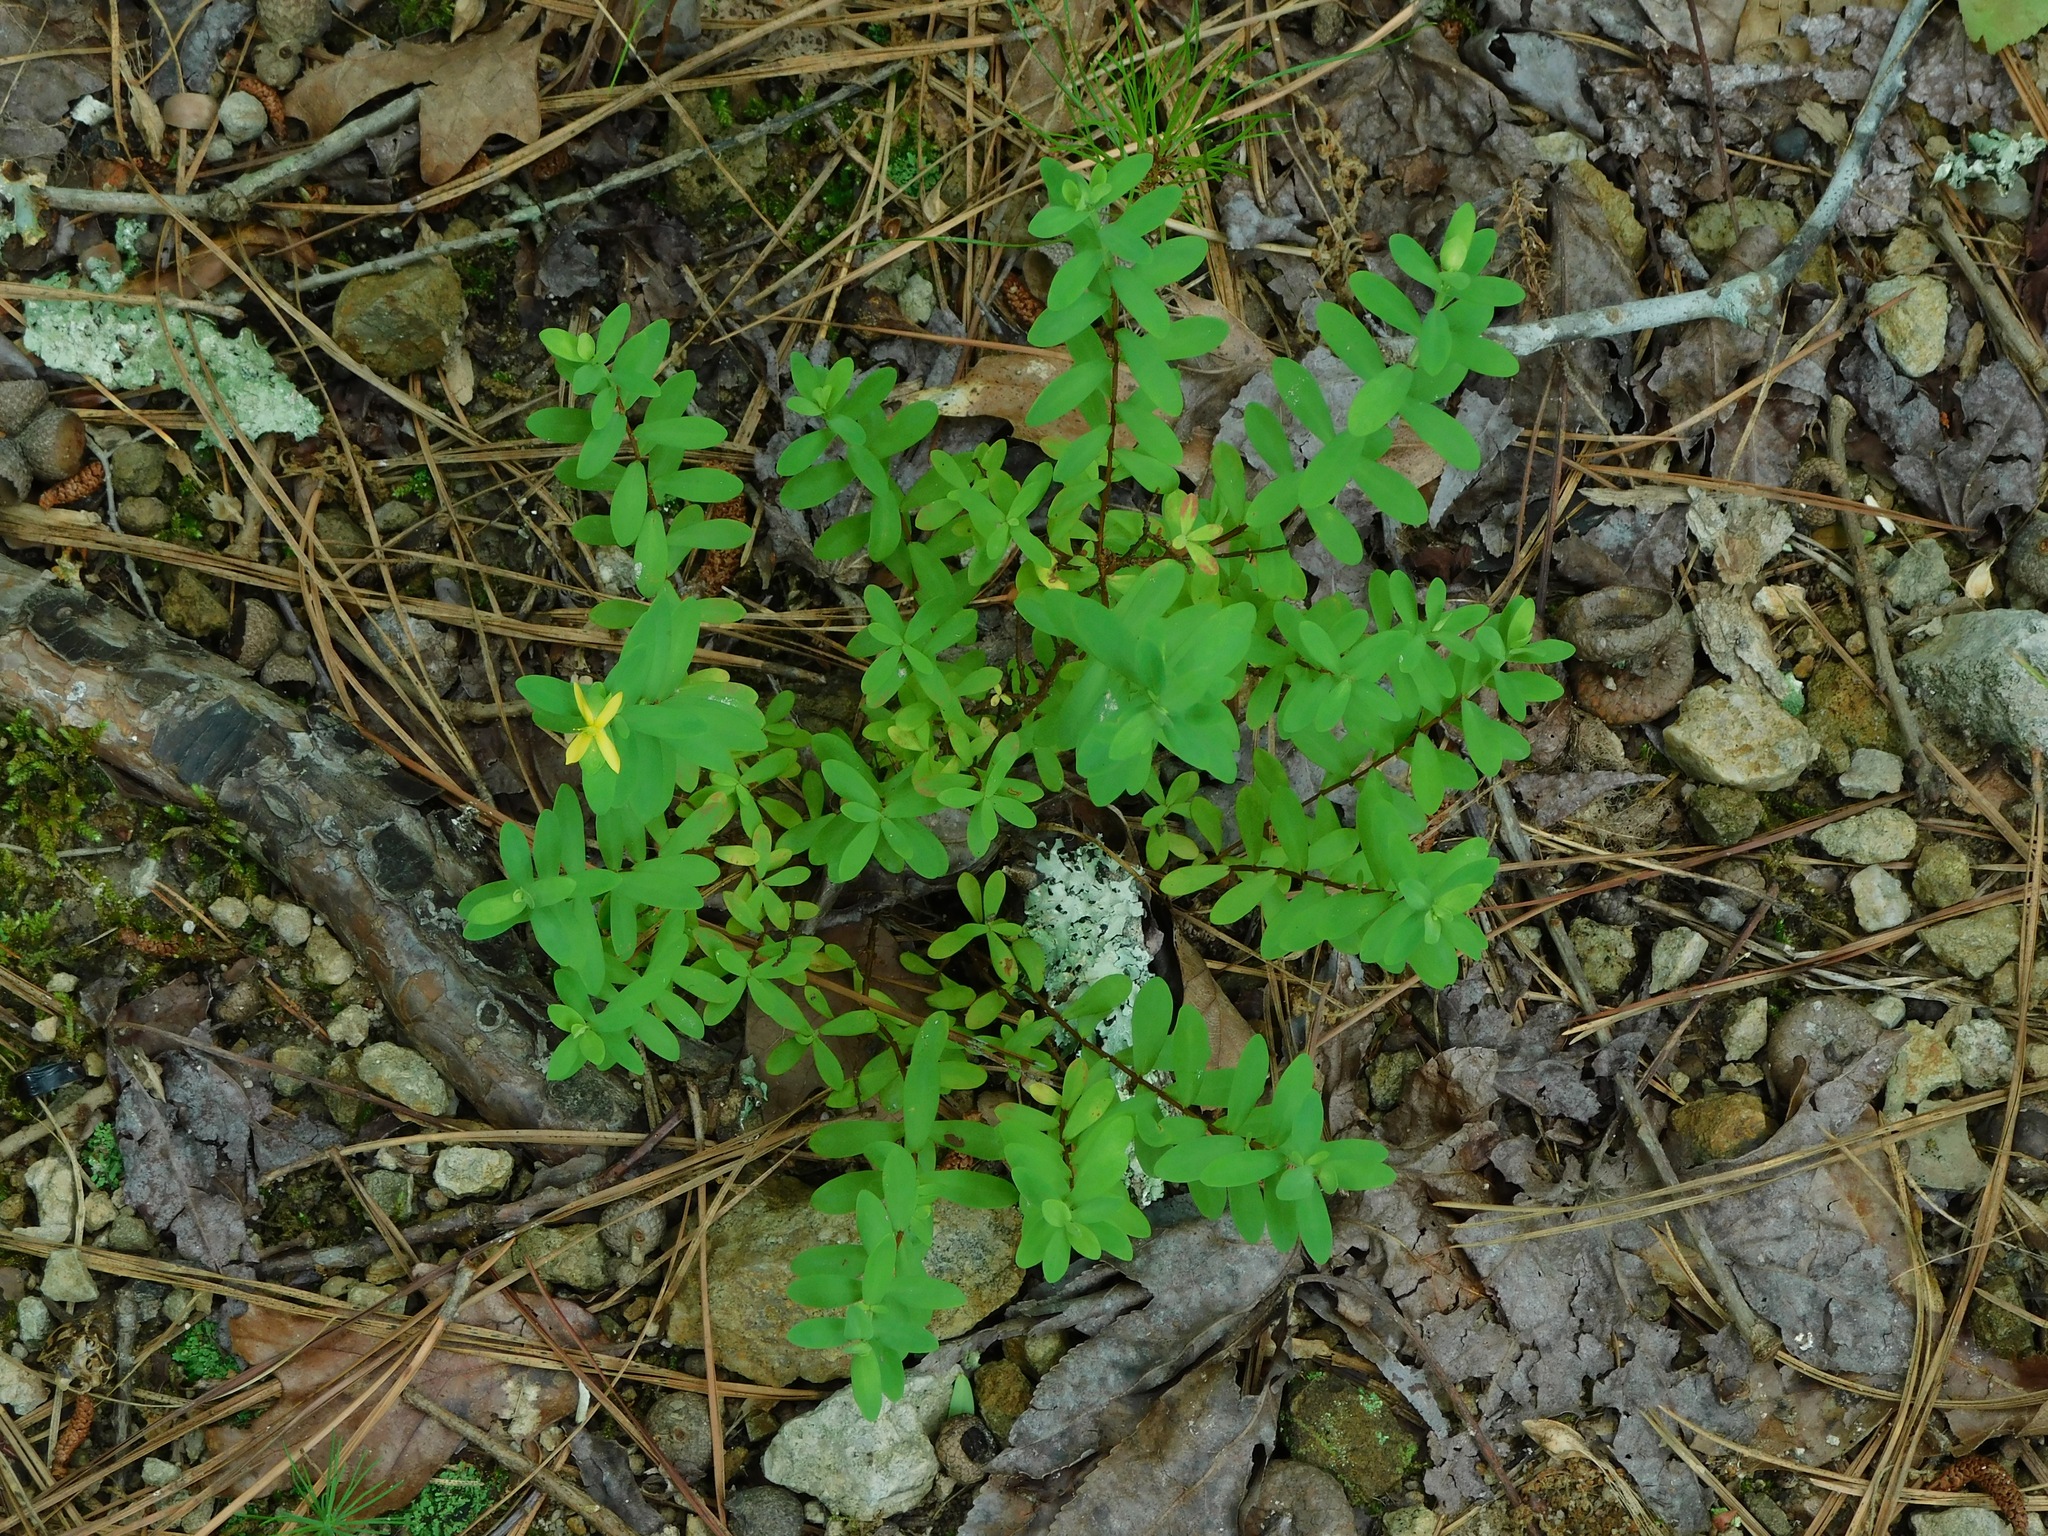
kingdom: Plantae
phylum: Tracheophyta
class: Magnoliopsida
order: Malpighiales
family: Hypericaceae
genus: Hypericum
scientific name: Hypericum hypericoides
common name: St. andrew's cross
